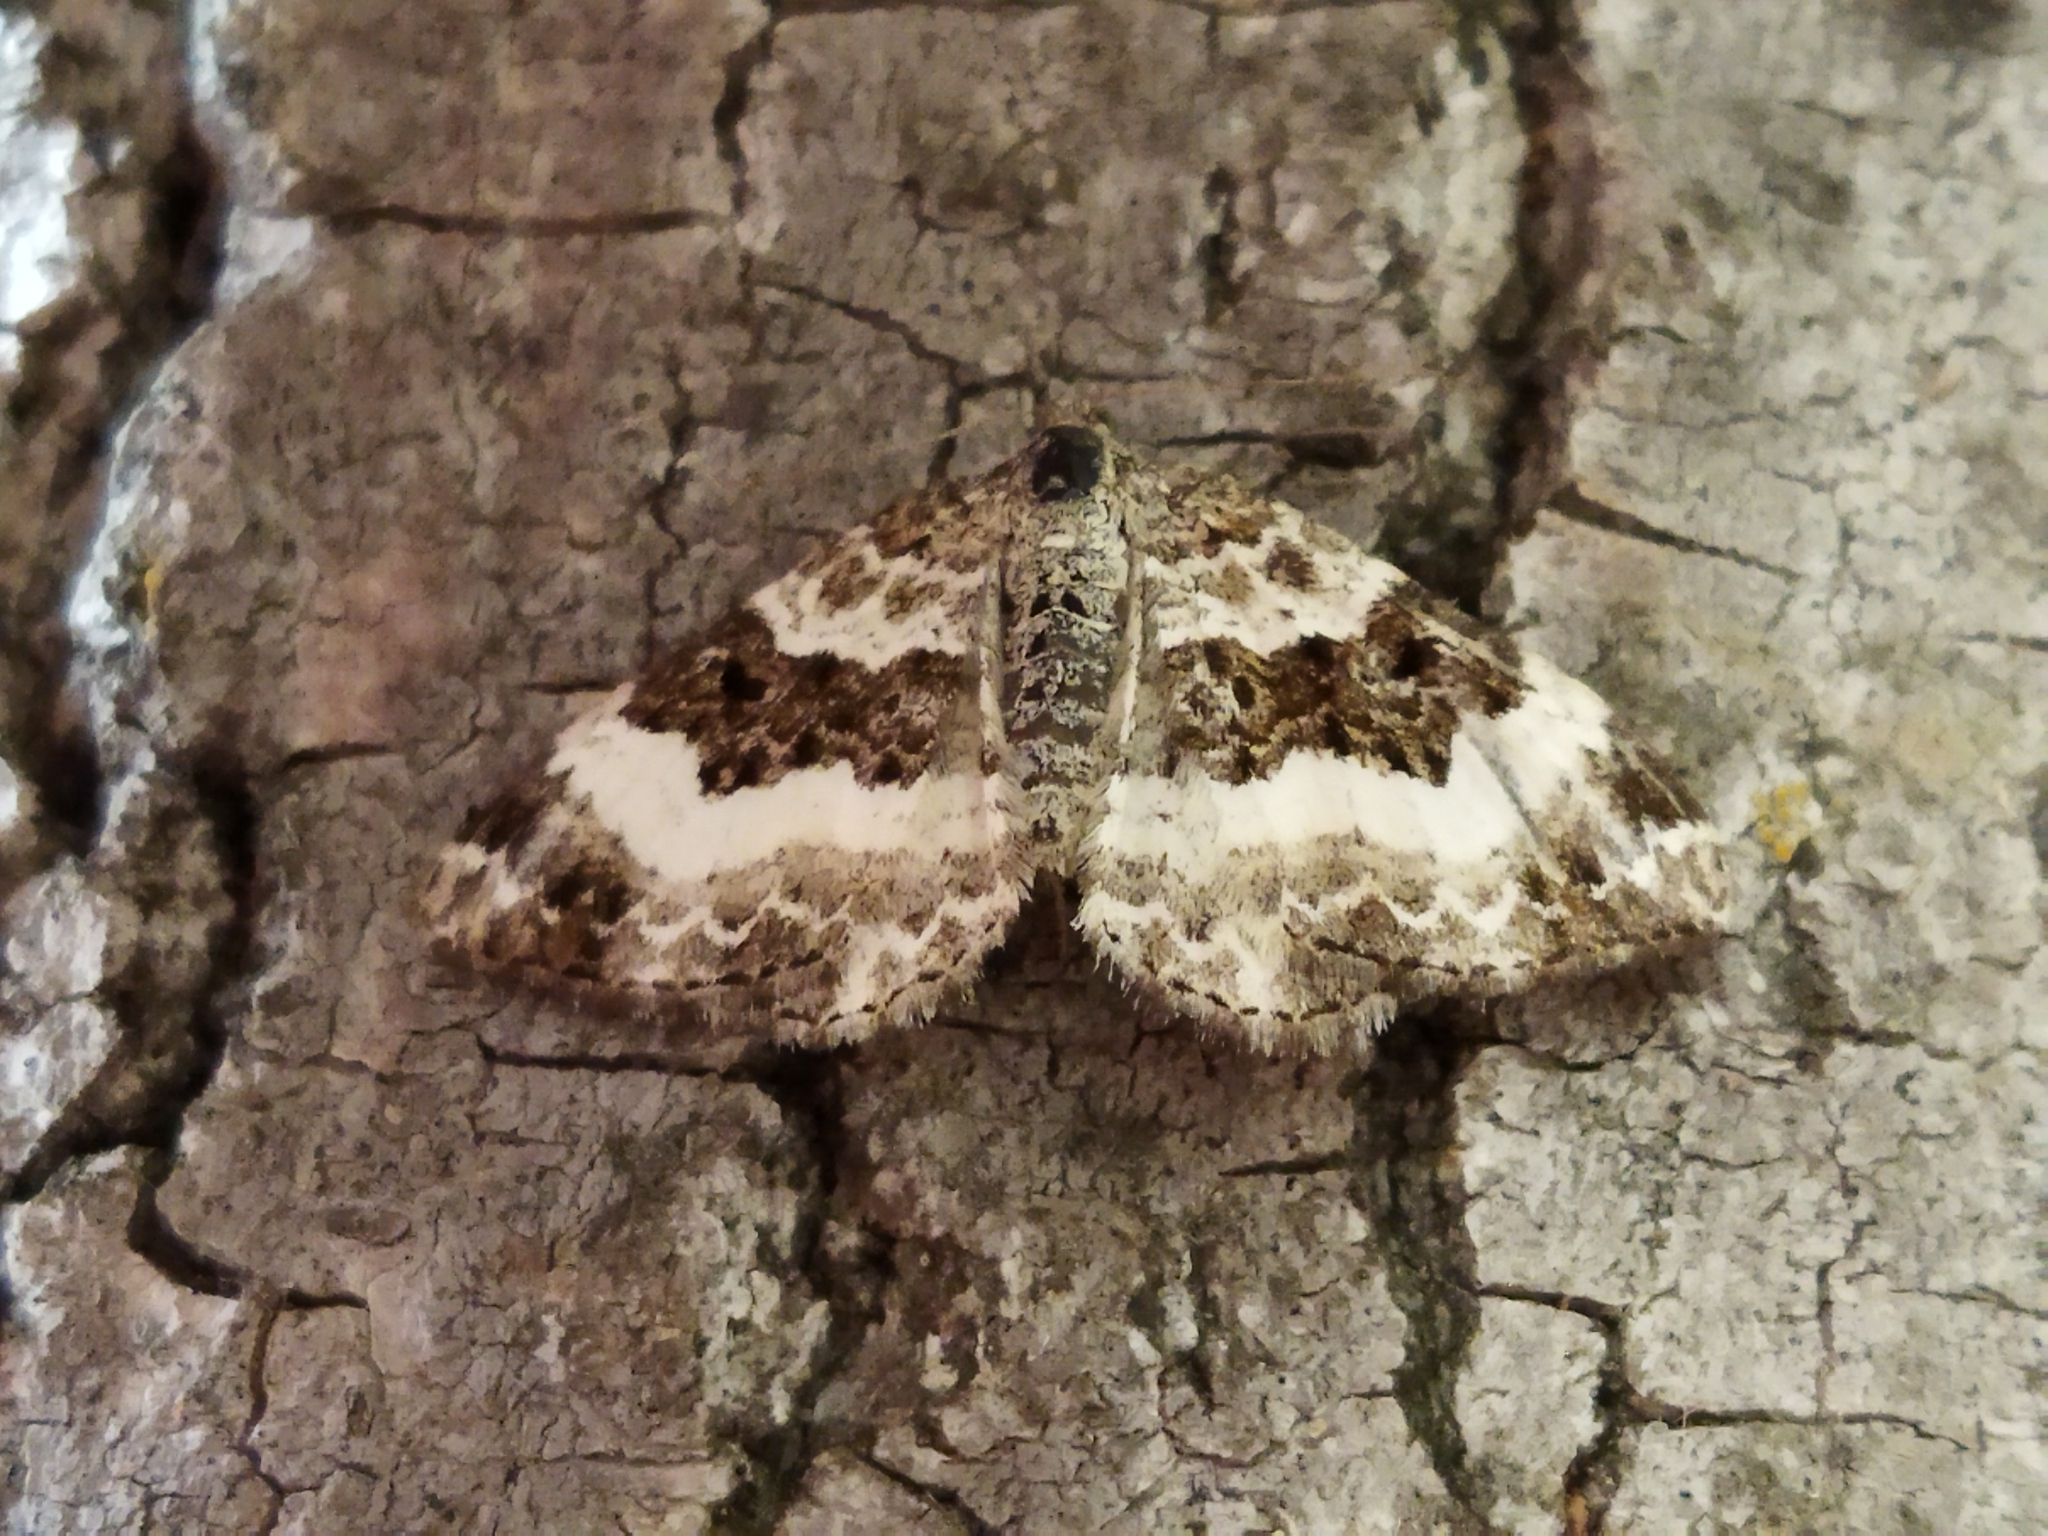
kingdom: Animalia
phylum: Arthropoda
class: Insecta
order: Lepidoptera
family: Geometridae
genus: Epirrhoe
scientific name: Epirrhoe alternata
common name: Common carpet
